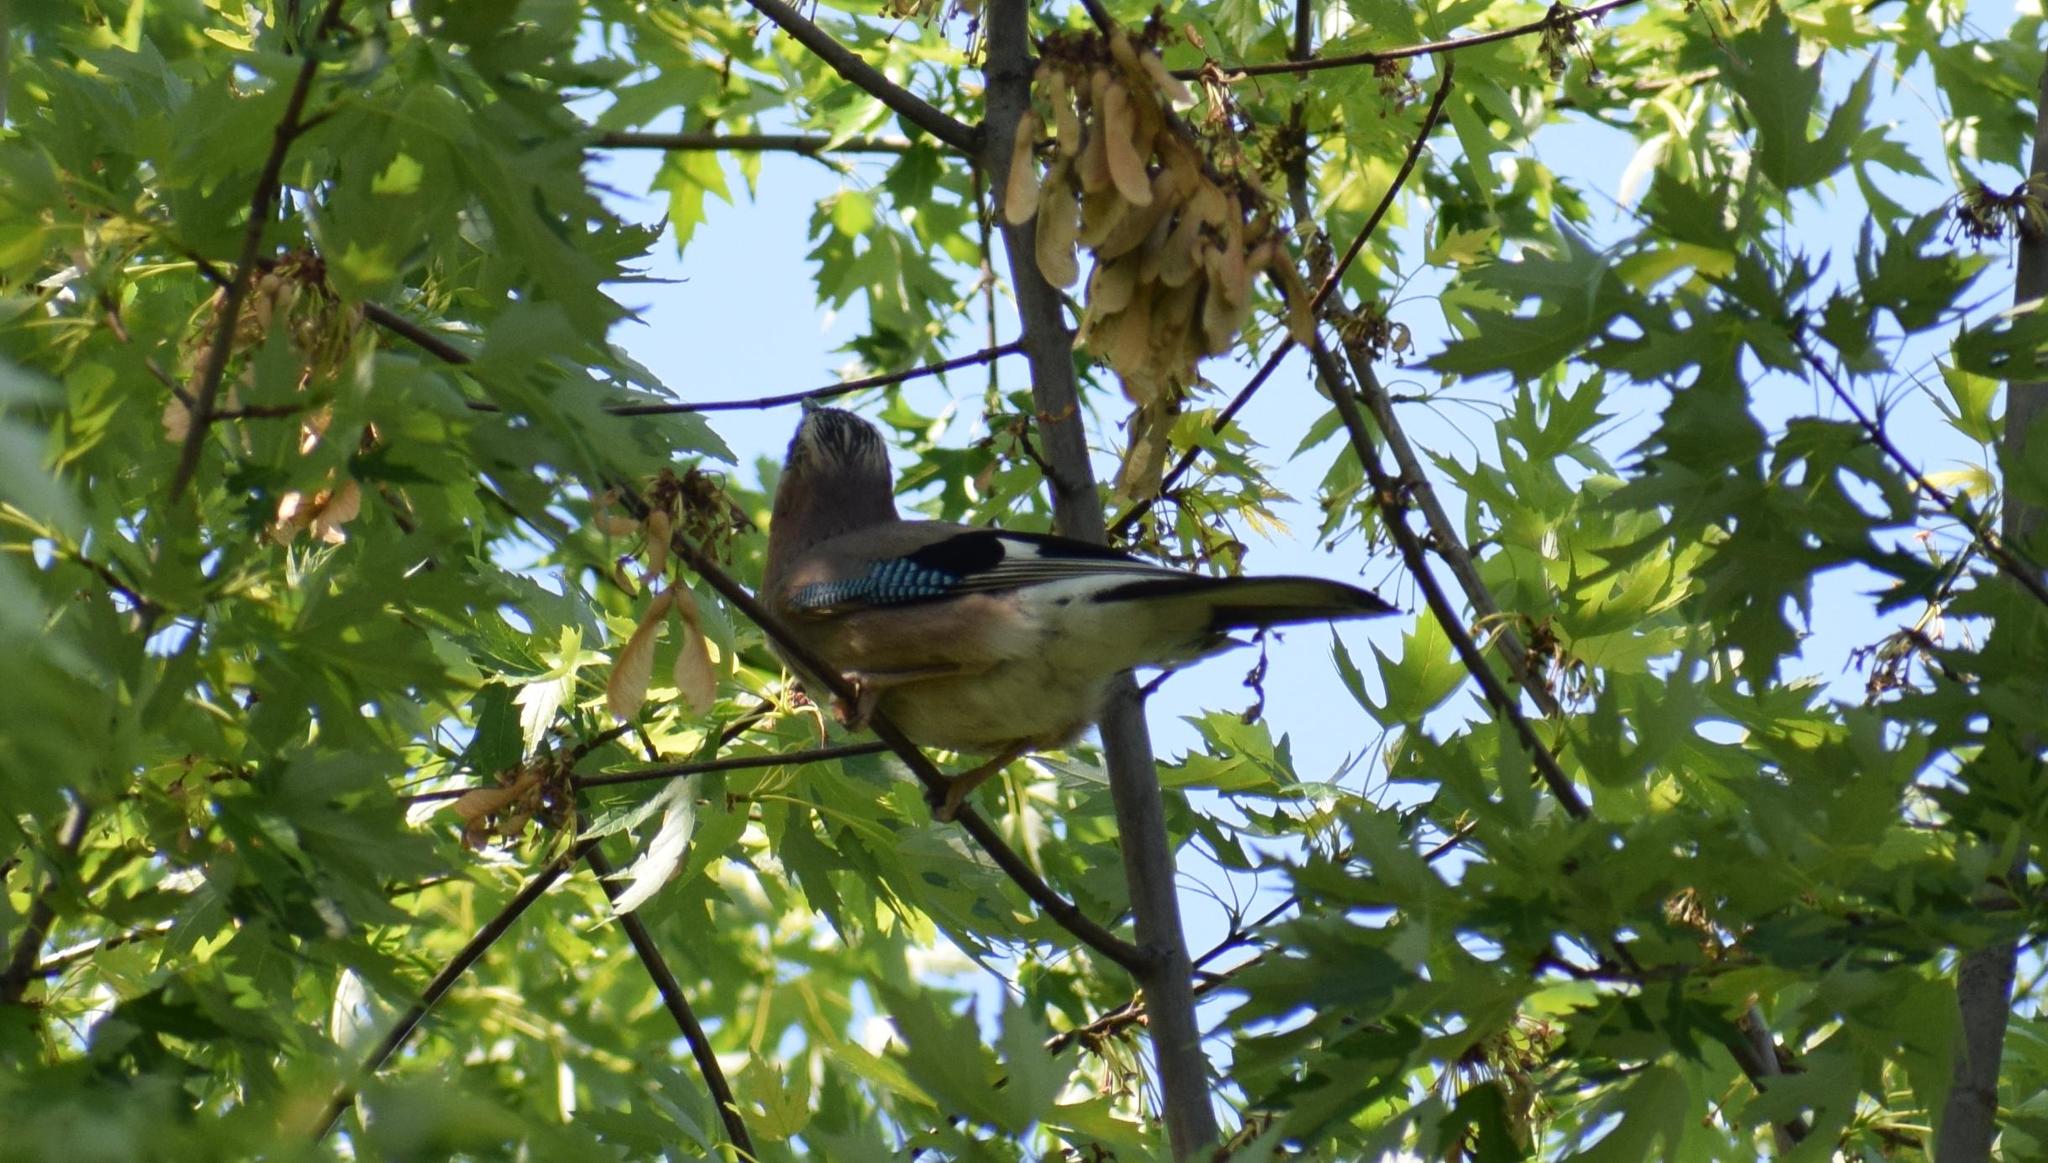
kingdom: Animalia
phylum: Chordata
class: Aves
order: Passeriformes
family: Corvidae
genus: Garrulus
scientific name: Garrulus glandarius
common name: Eurasian jay
